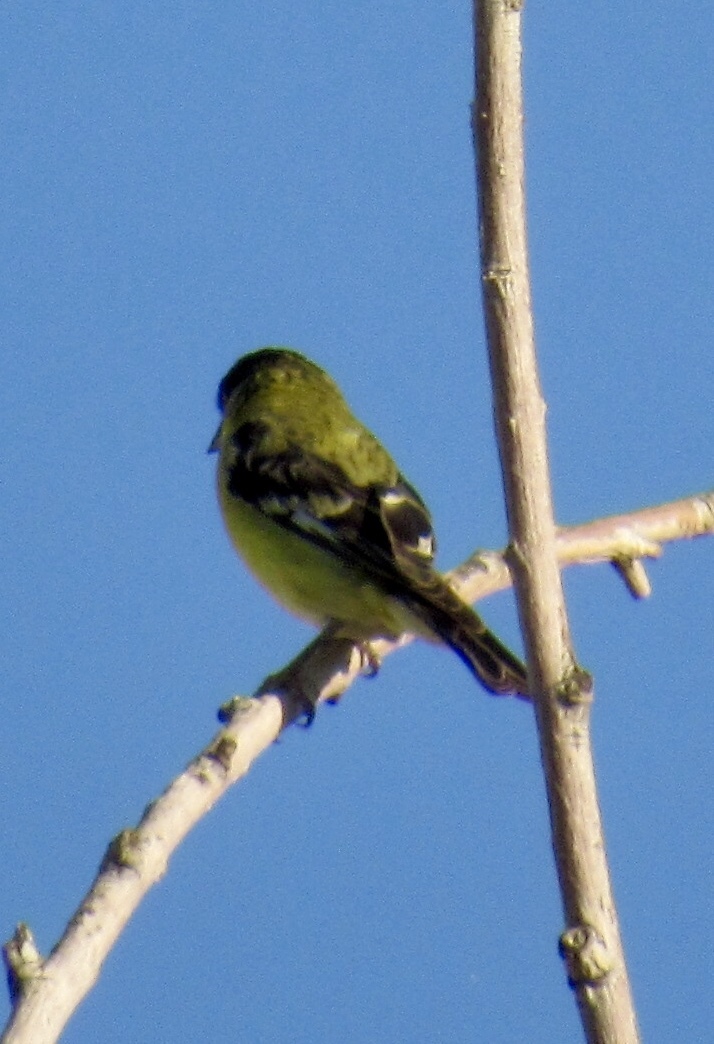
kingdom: Animalia
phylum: Chordata
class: Aves
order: Passeriformes
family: Fringillidae
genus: Spinus
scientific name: Spinus psaltria
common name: Lesser goldfinch
